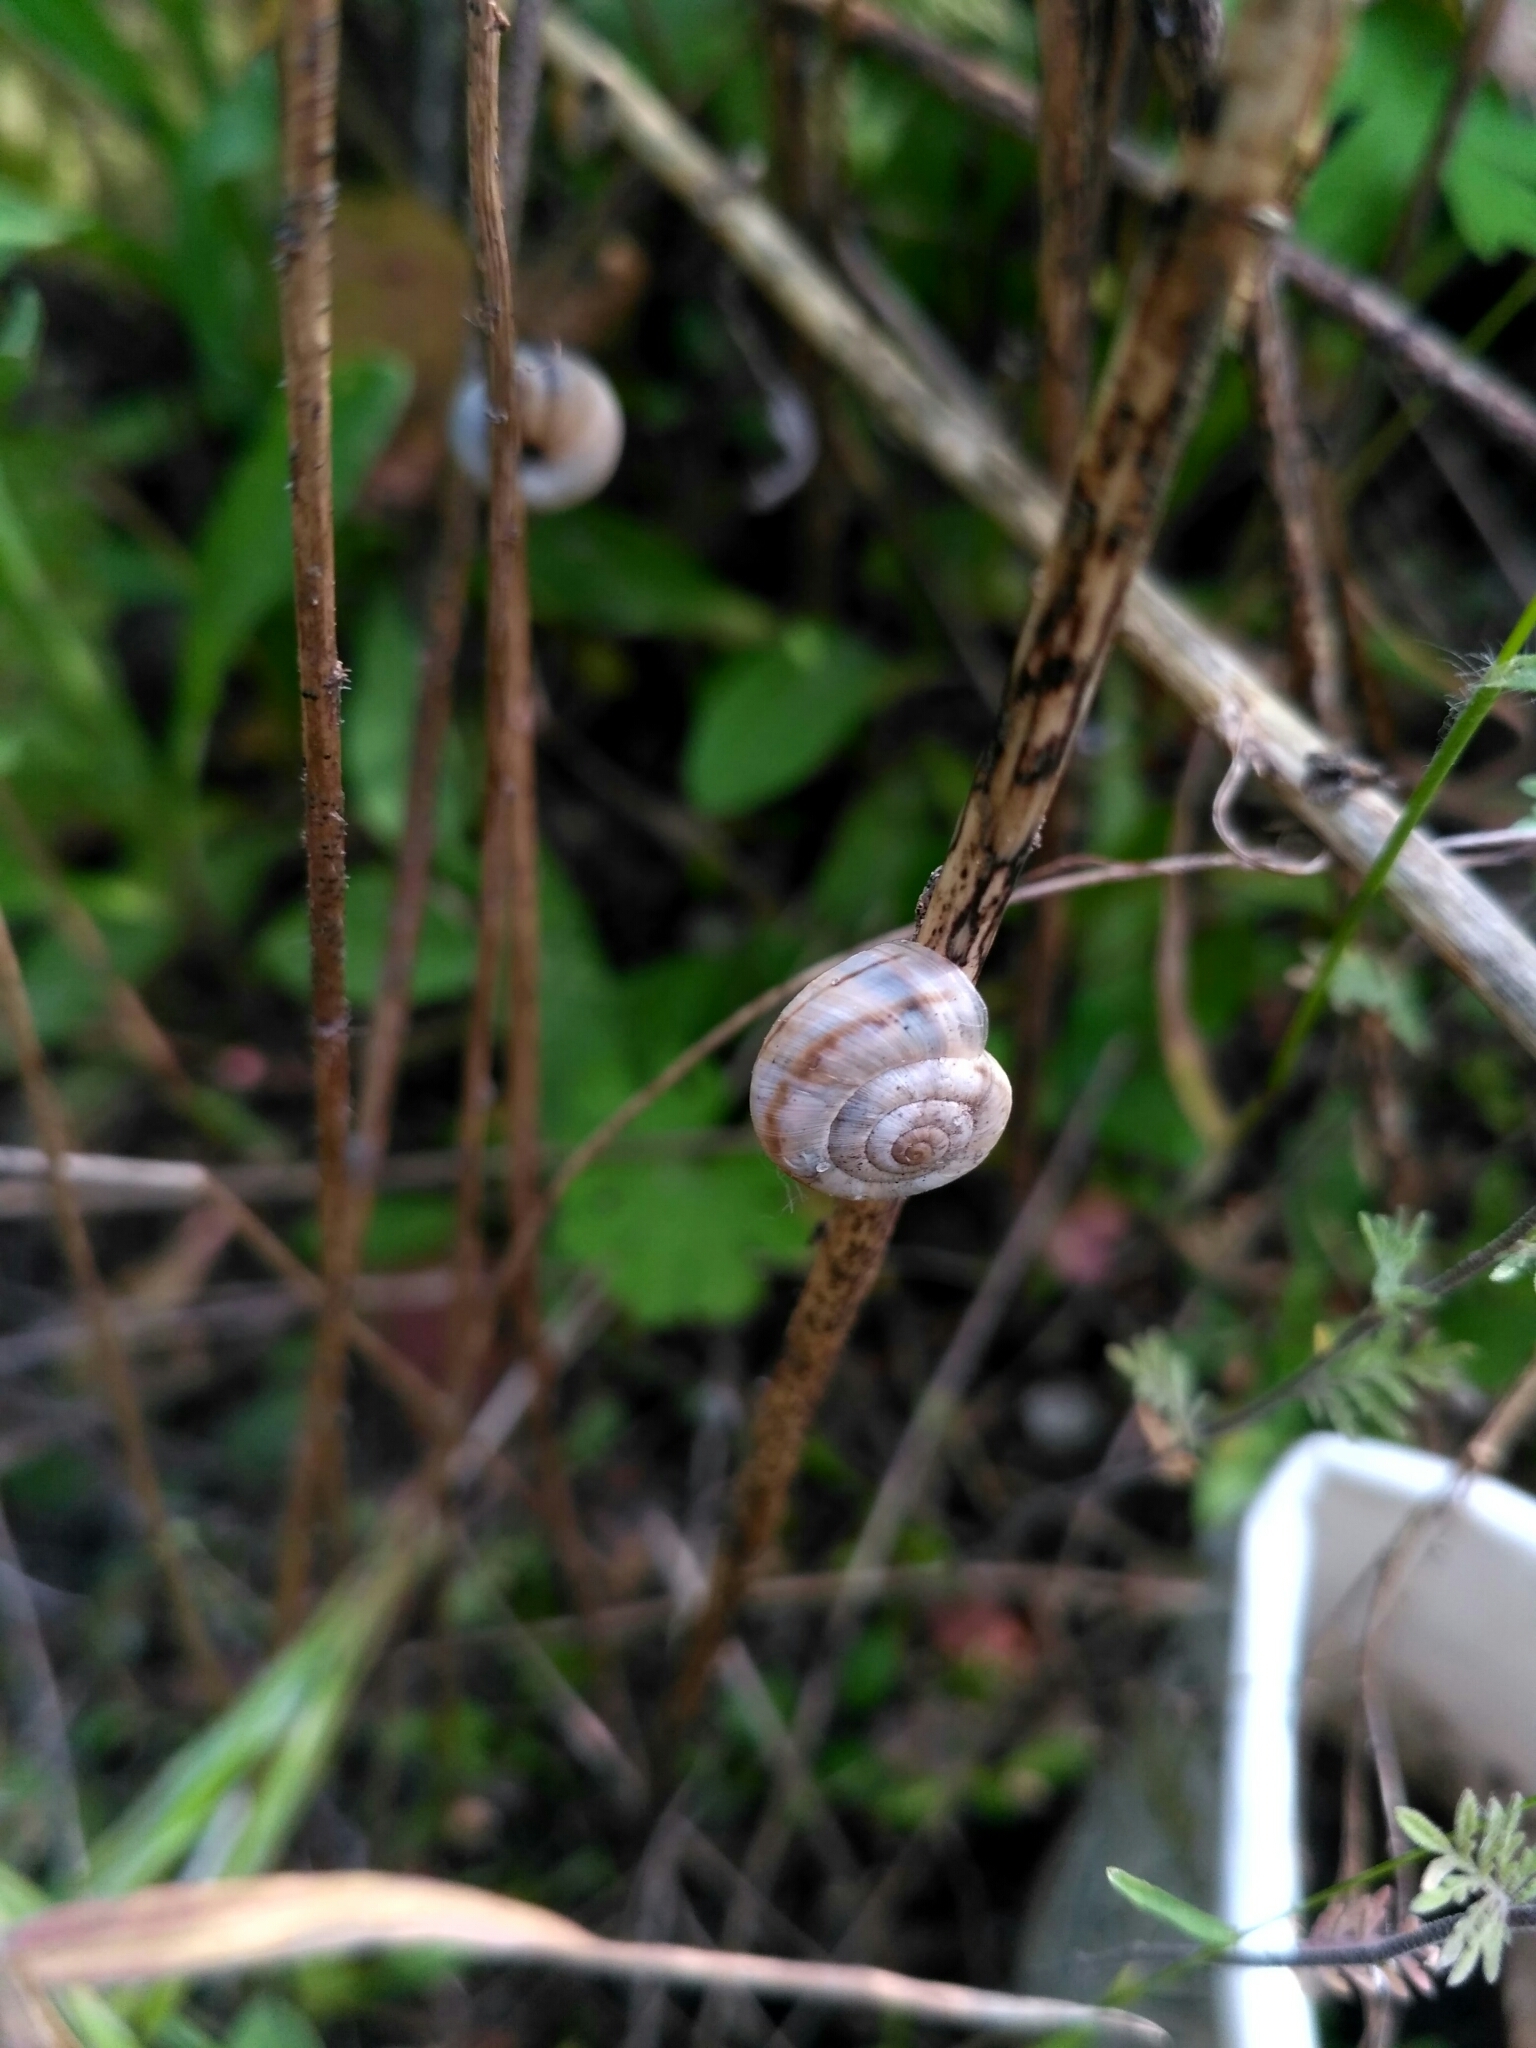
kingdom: Animalia
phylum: Mollusca
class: Gastropoda
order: Stylommatophora
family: Geomitridae
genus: Xerolenta
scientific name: Xerolenta obvia
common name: White heath snail
